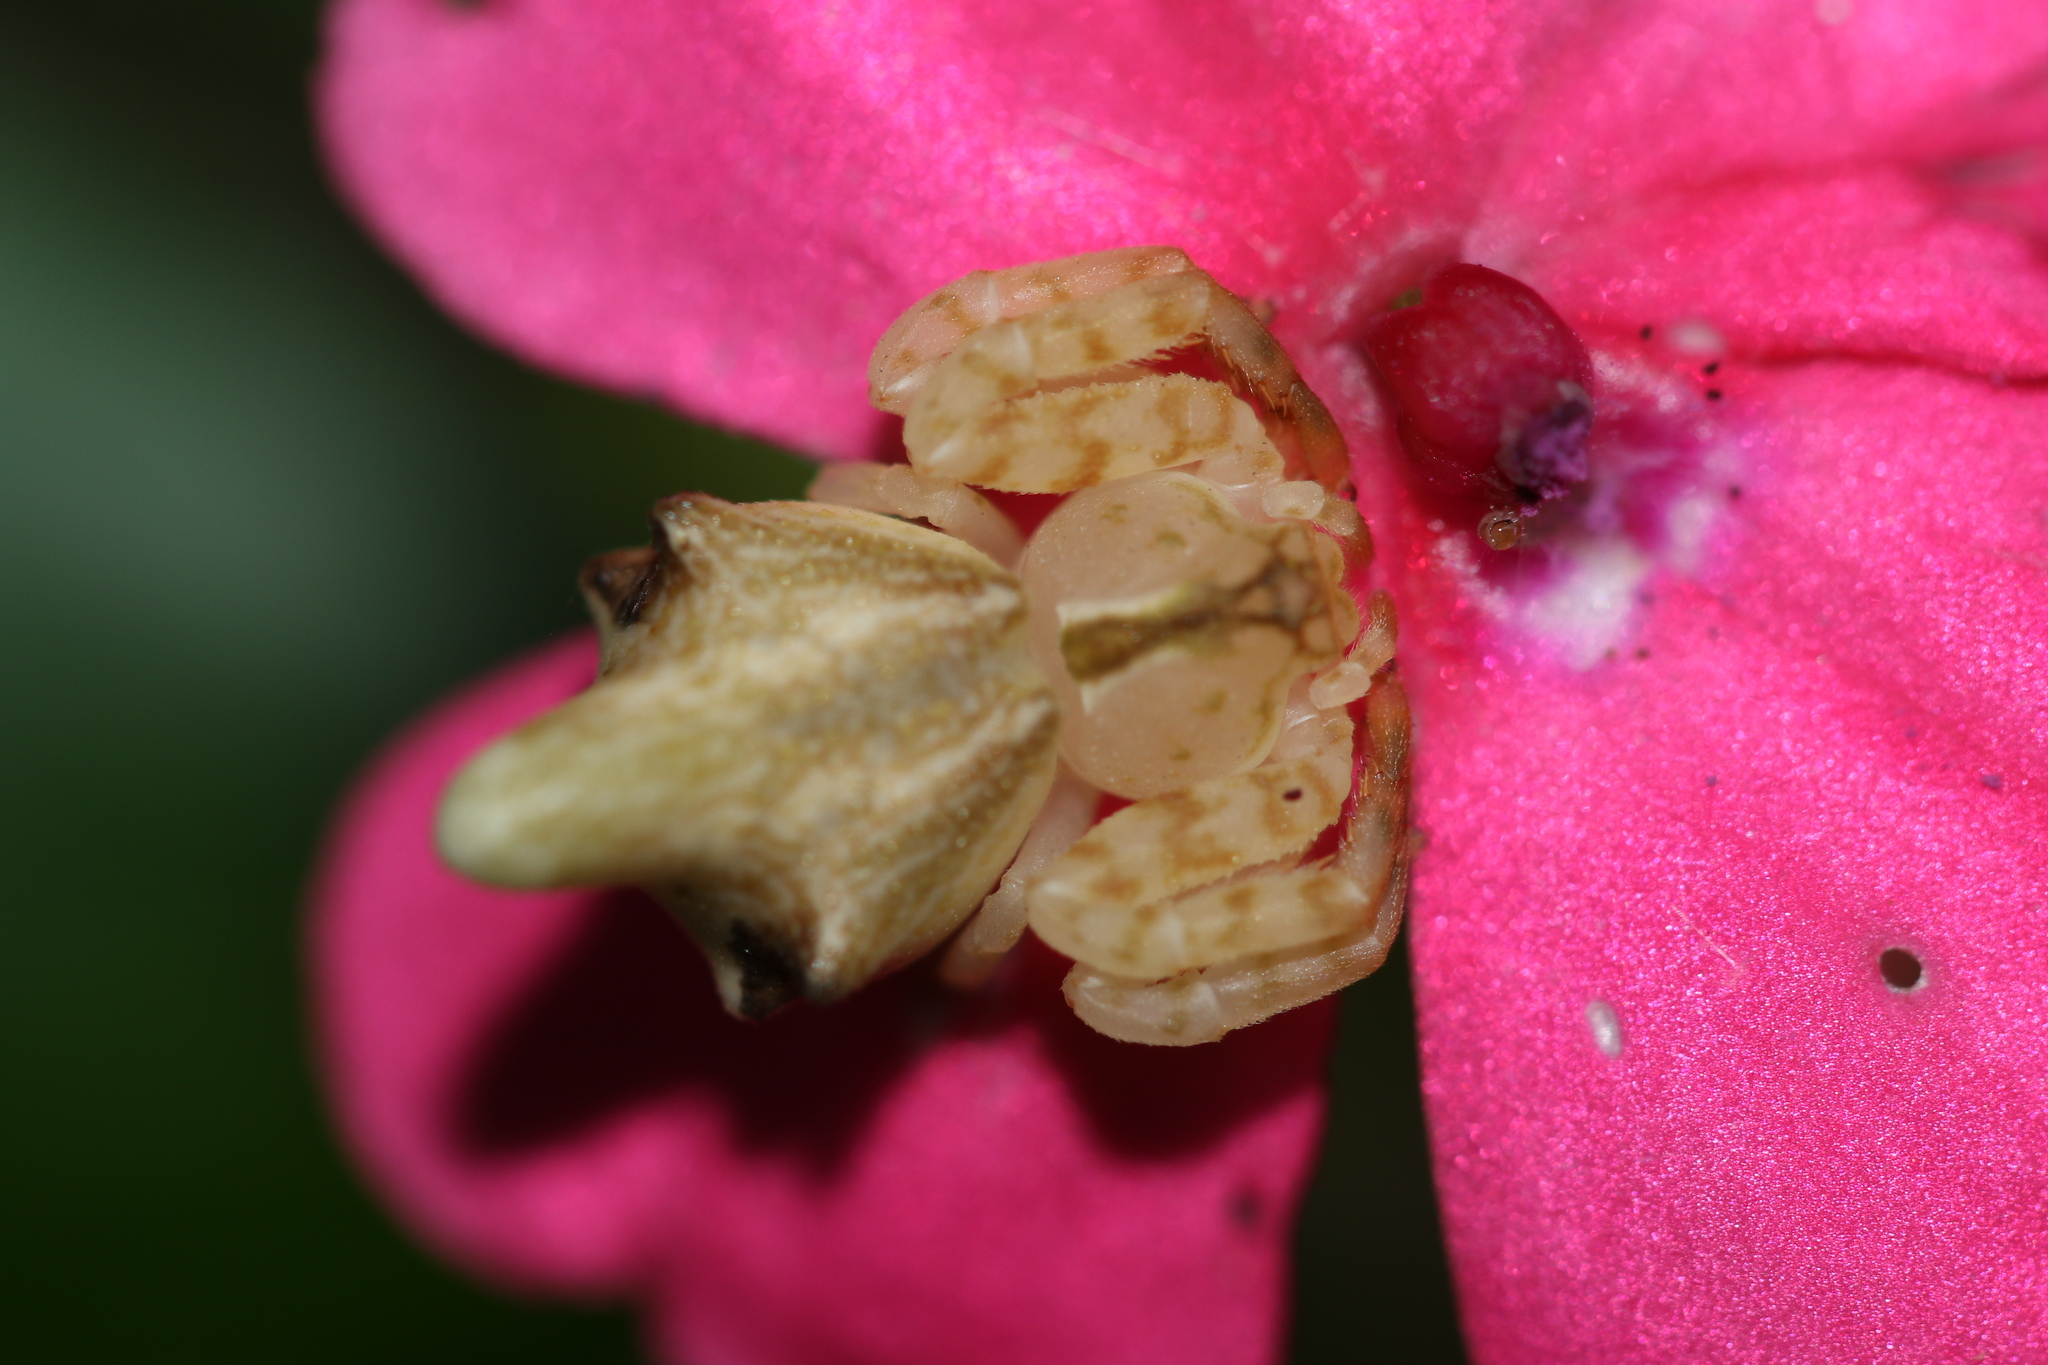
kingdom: Animalia
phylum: Arthropoda
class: Arachnida
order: Araneae
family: Thomisidae
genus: Epicadus
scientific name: Epicadus rubripes
